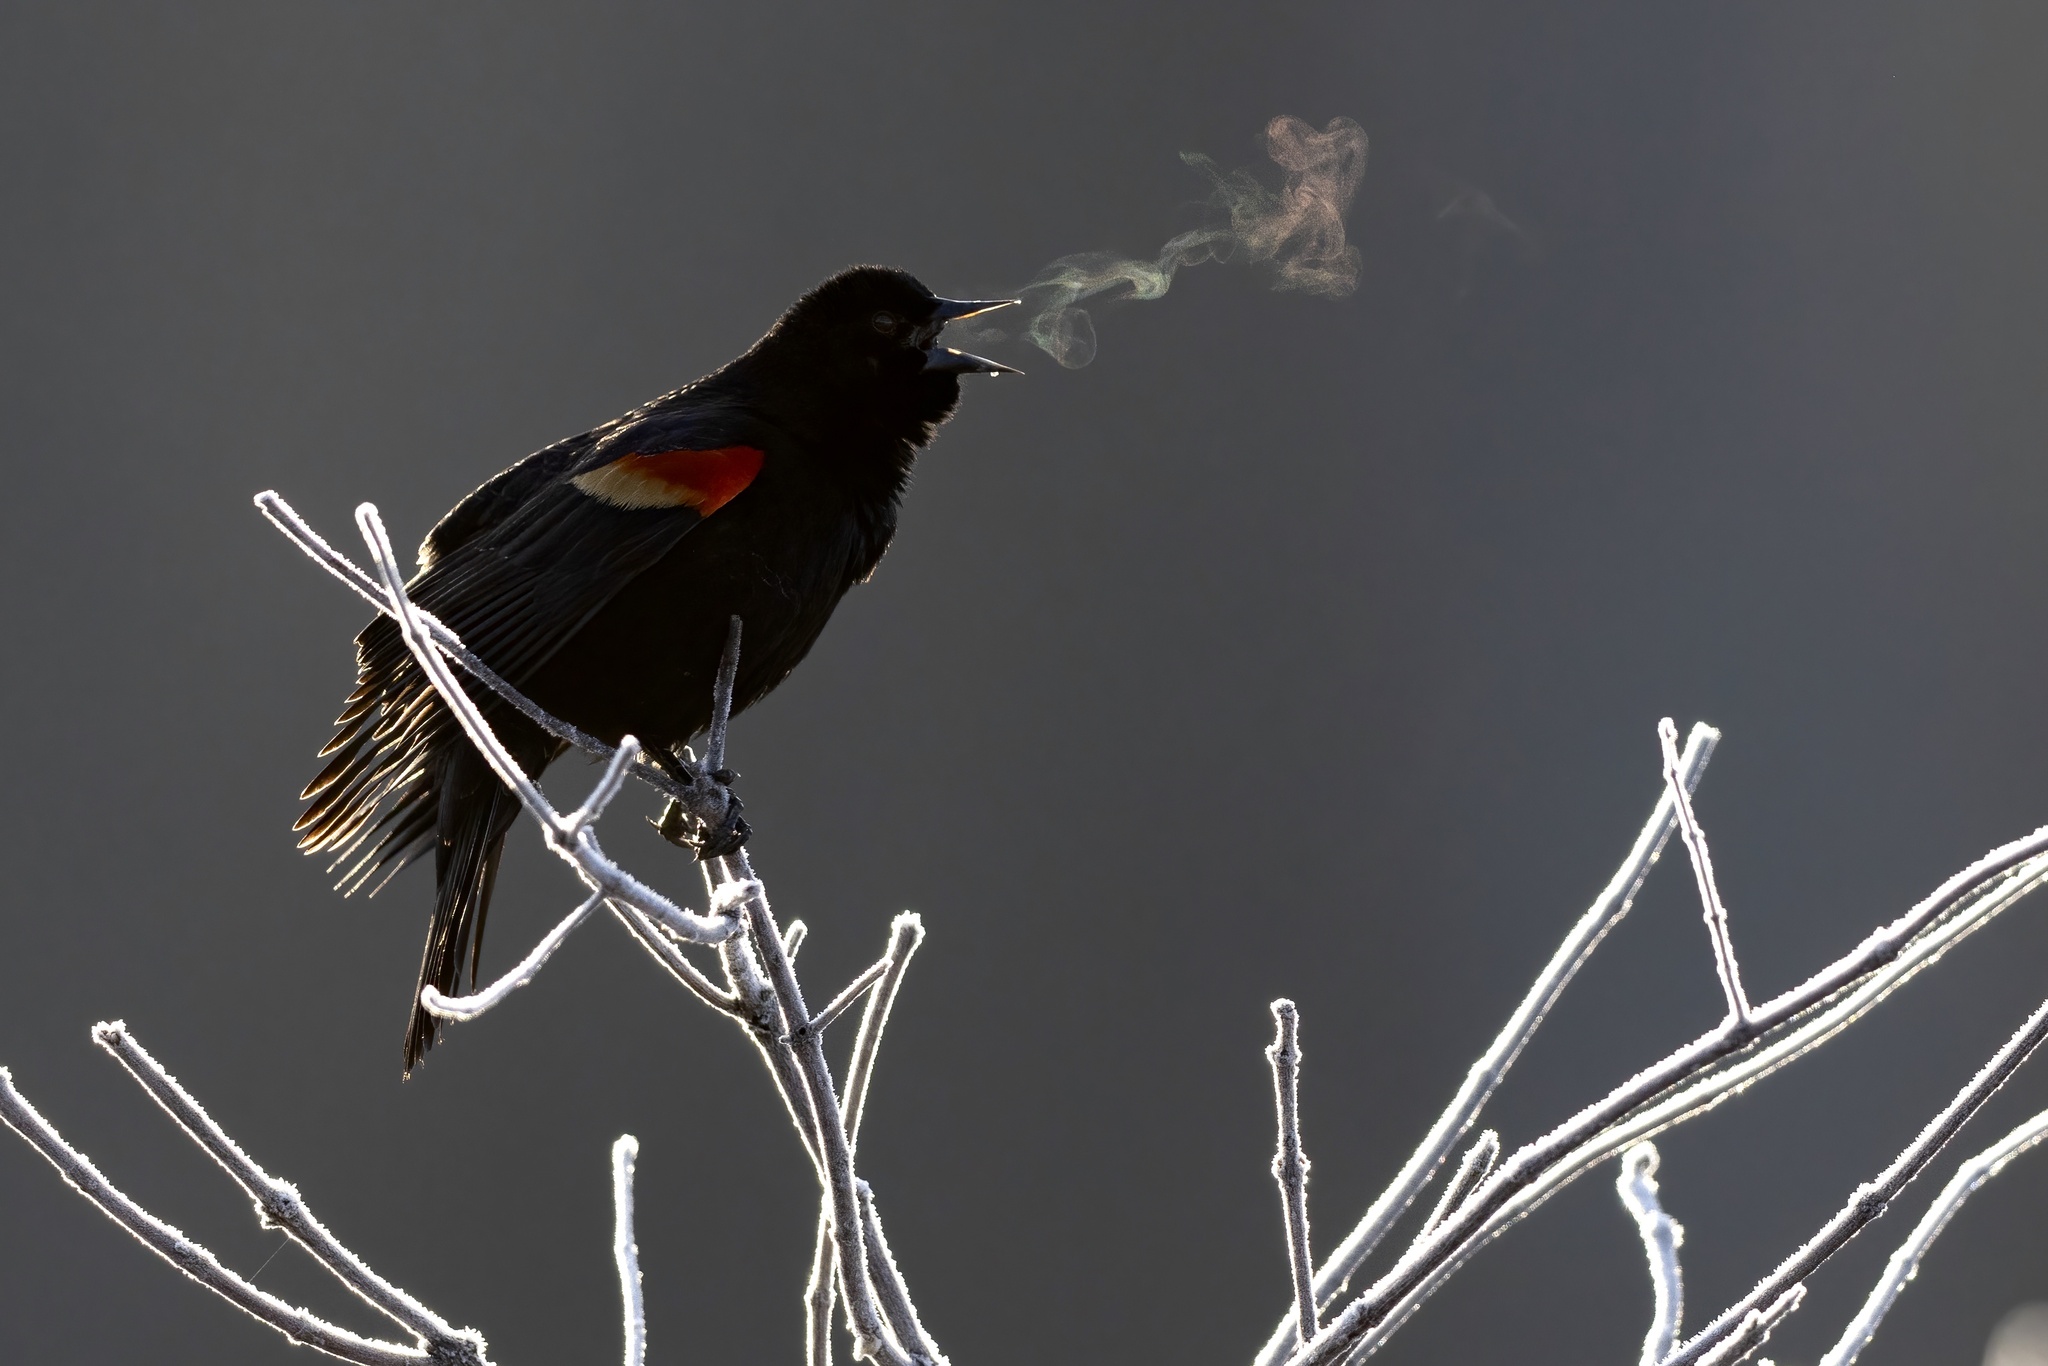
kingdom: Animalia
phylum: Chordata
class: Aves
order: Passeriformes
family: Icteridae
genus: Agelaius
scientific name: Agelaius phoeniceus
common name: Red-winged blackbird
